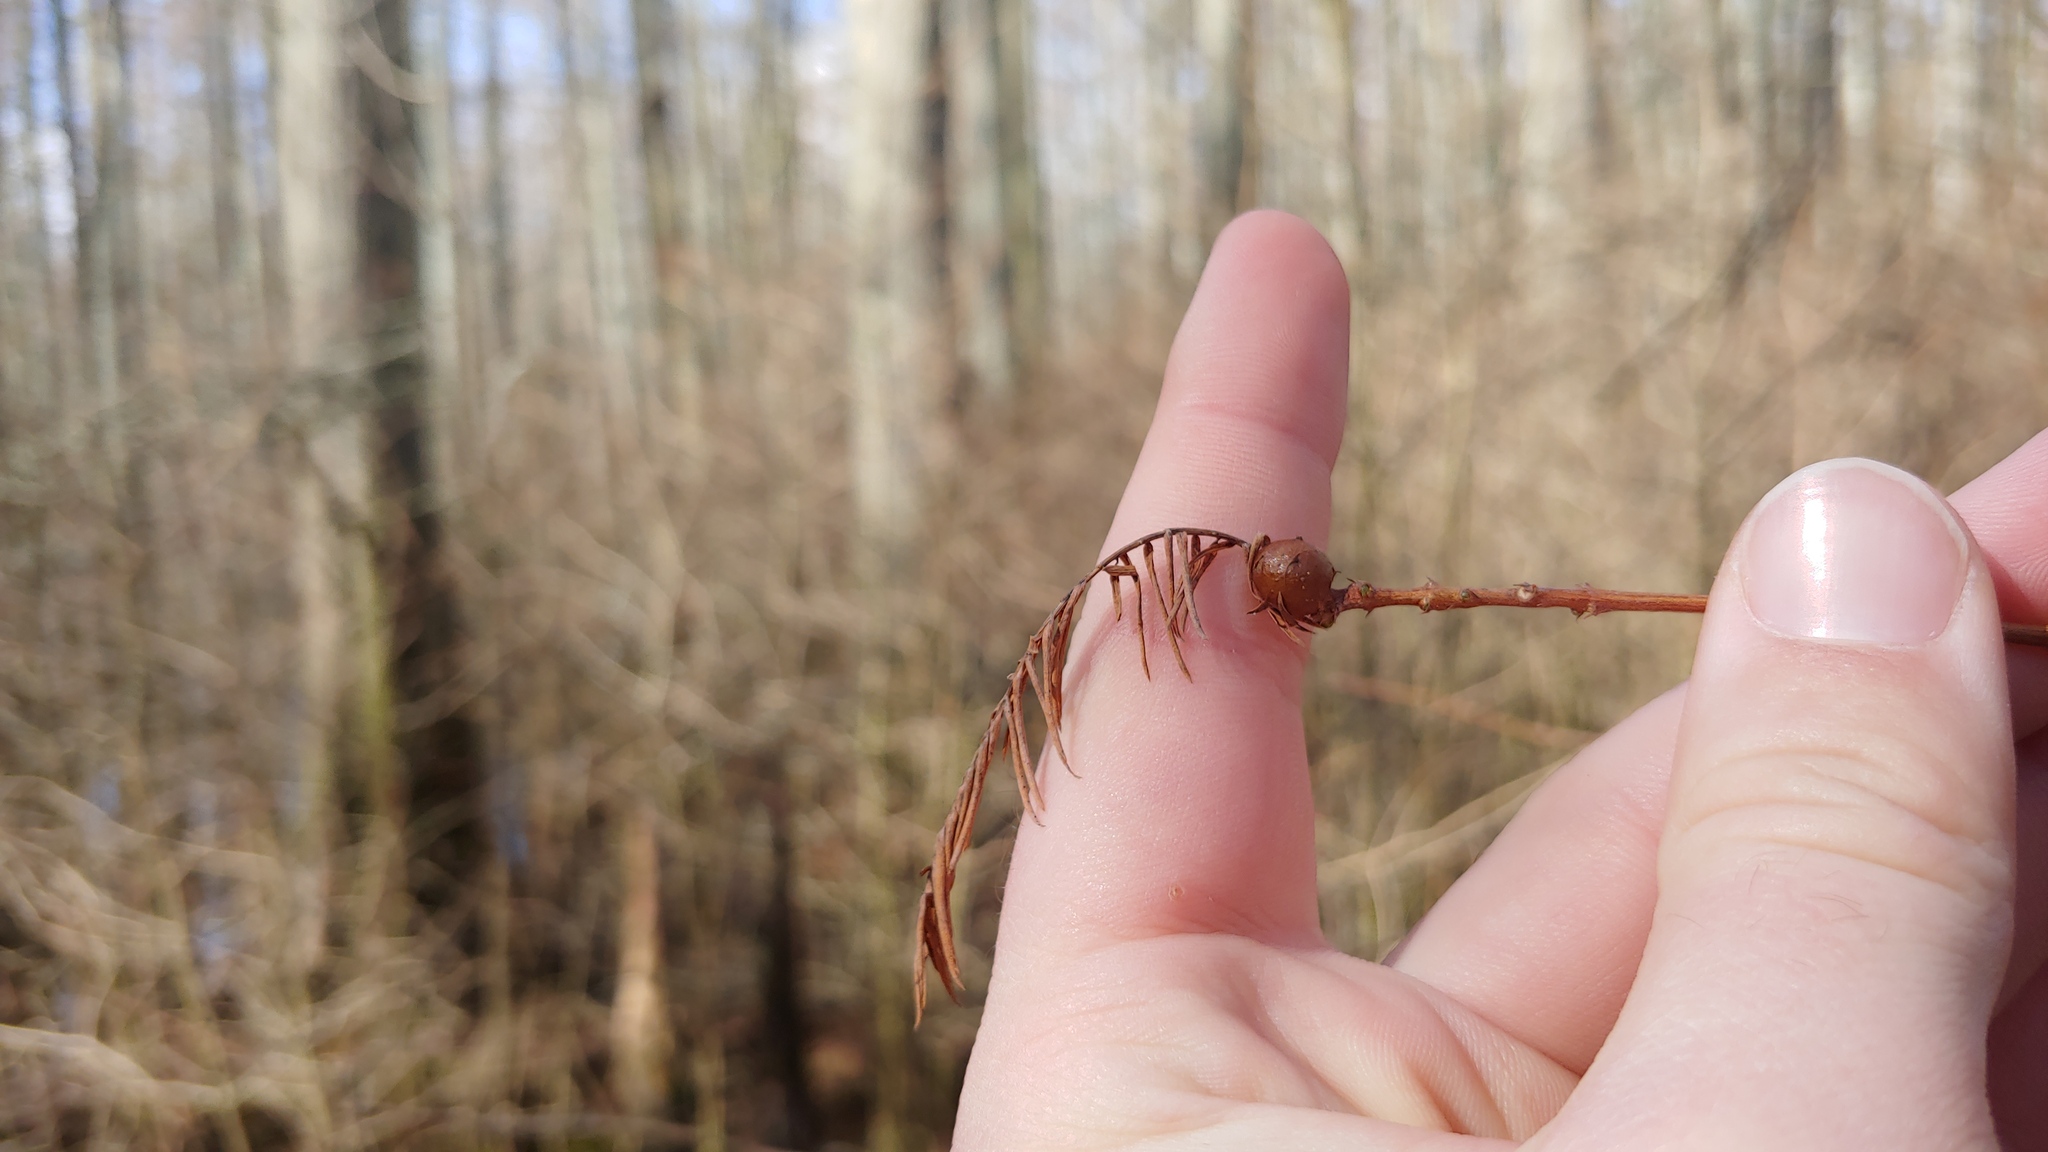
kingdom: Animalia
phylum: Arthropoda
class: Insecta
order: Diptera
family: Cecidomyiidae
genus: Taxodiomyia
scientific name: Taxodiomyia cupressiananassa
